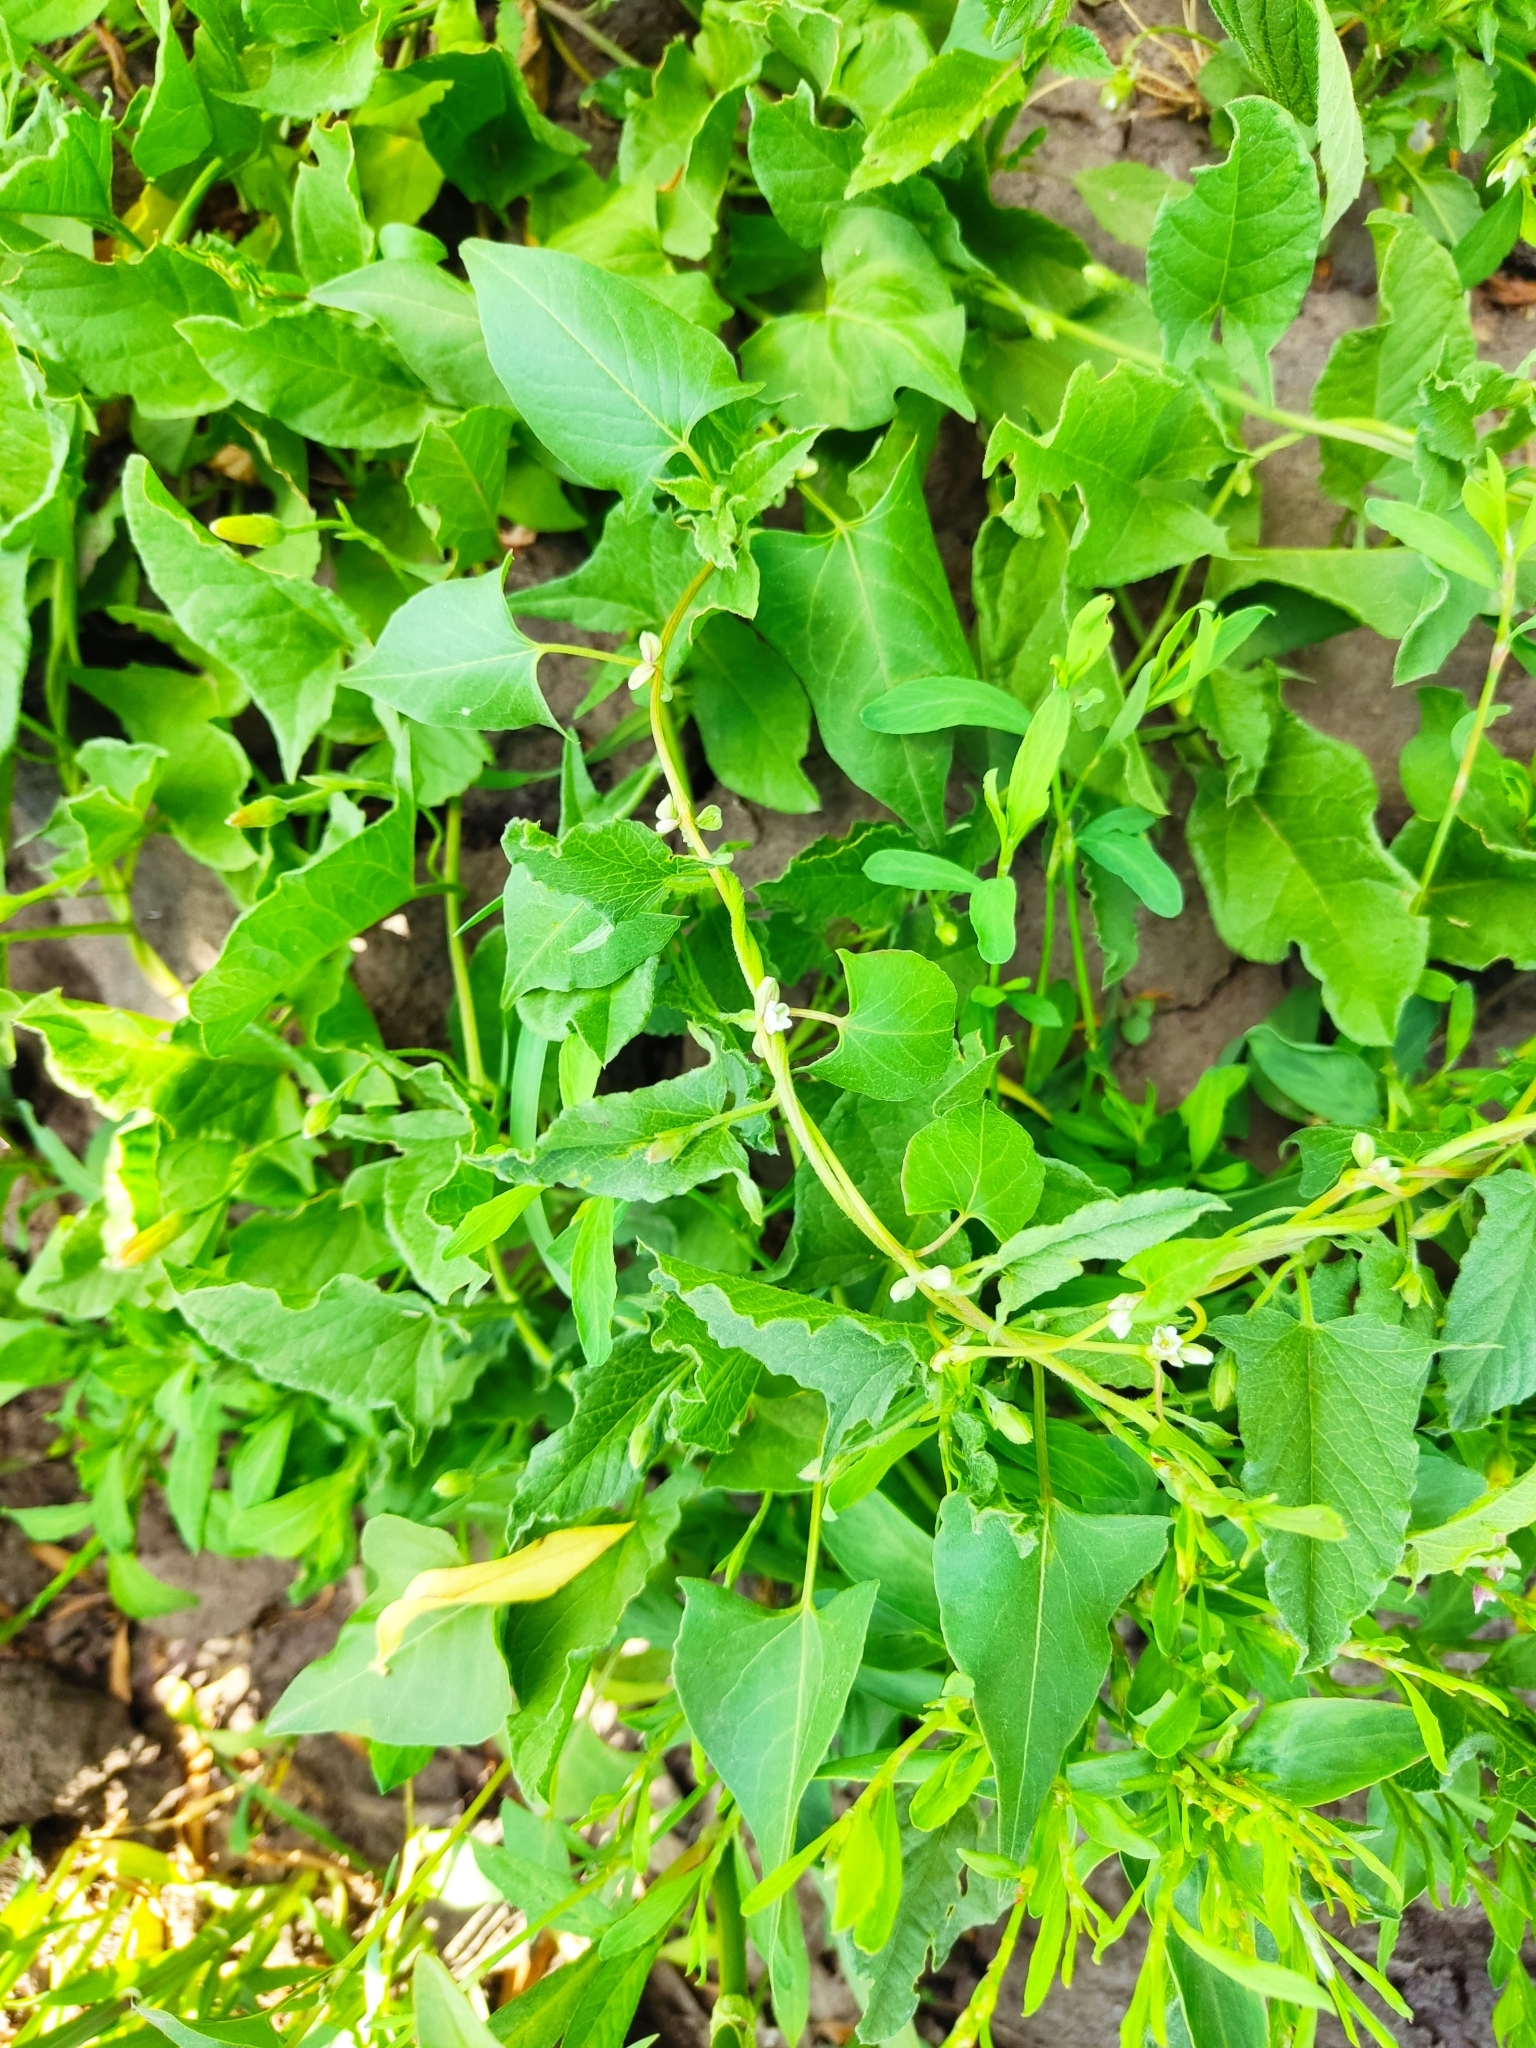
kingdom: Plantae
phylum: Tracheophyta
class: Magnoliopsida
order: Caryophyllales
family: Polygonaceae
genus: Fallopia
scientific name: Fallopia convolvulus
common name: Black bindweed
